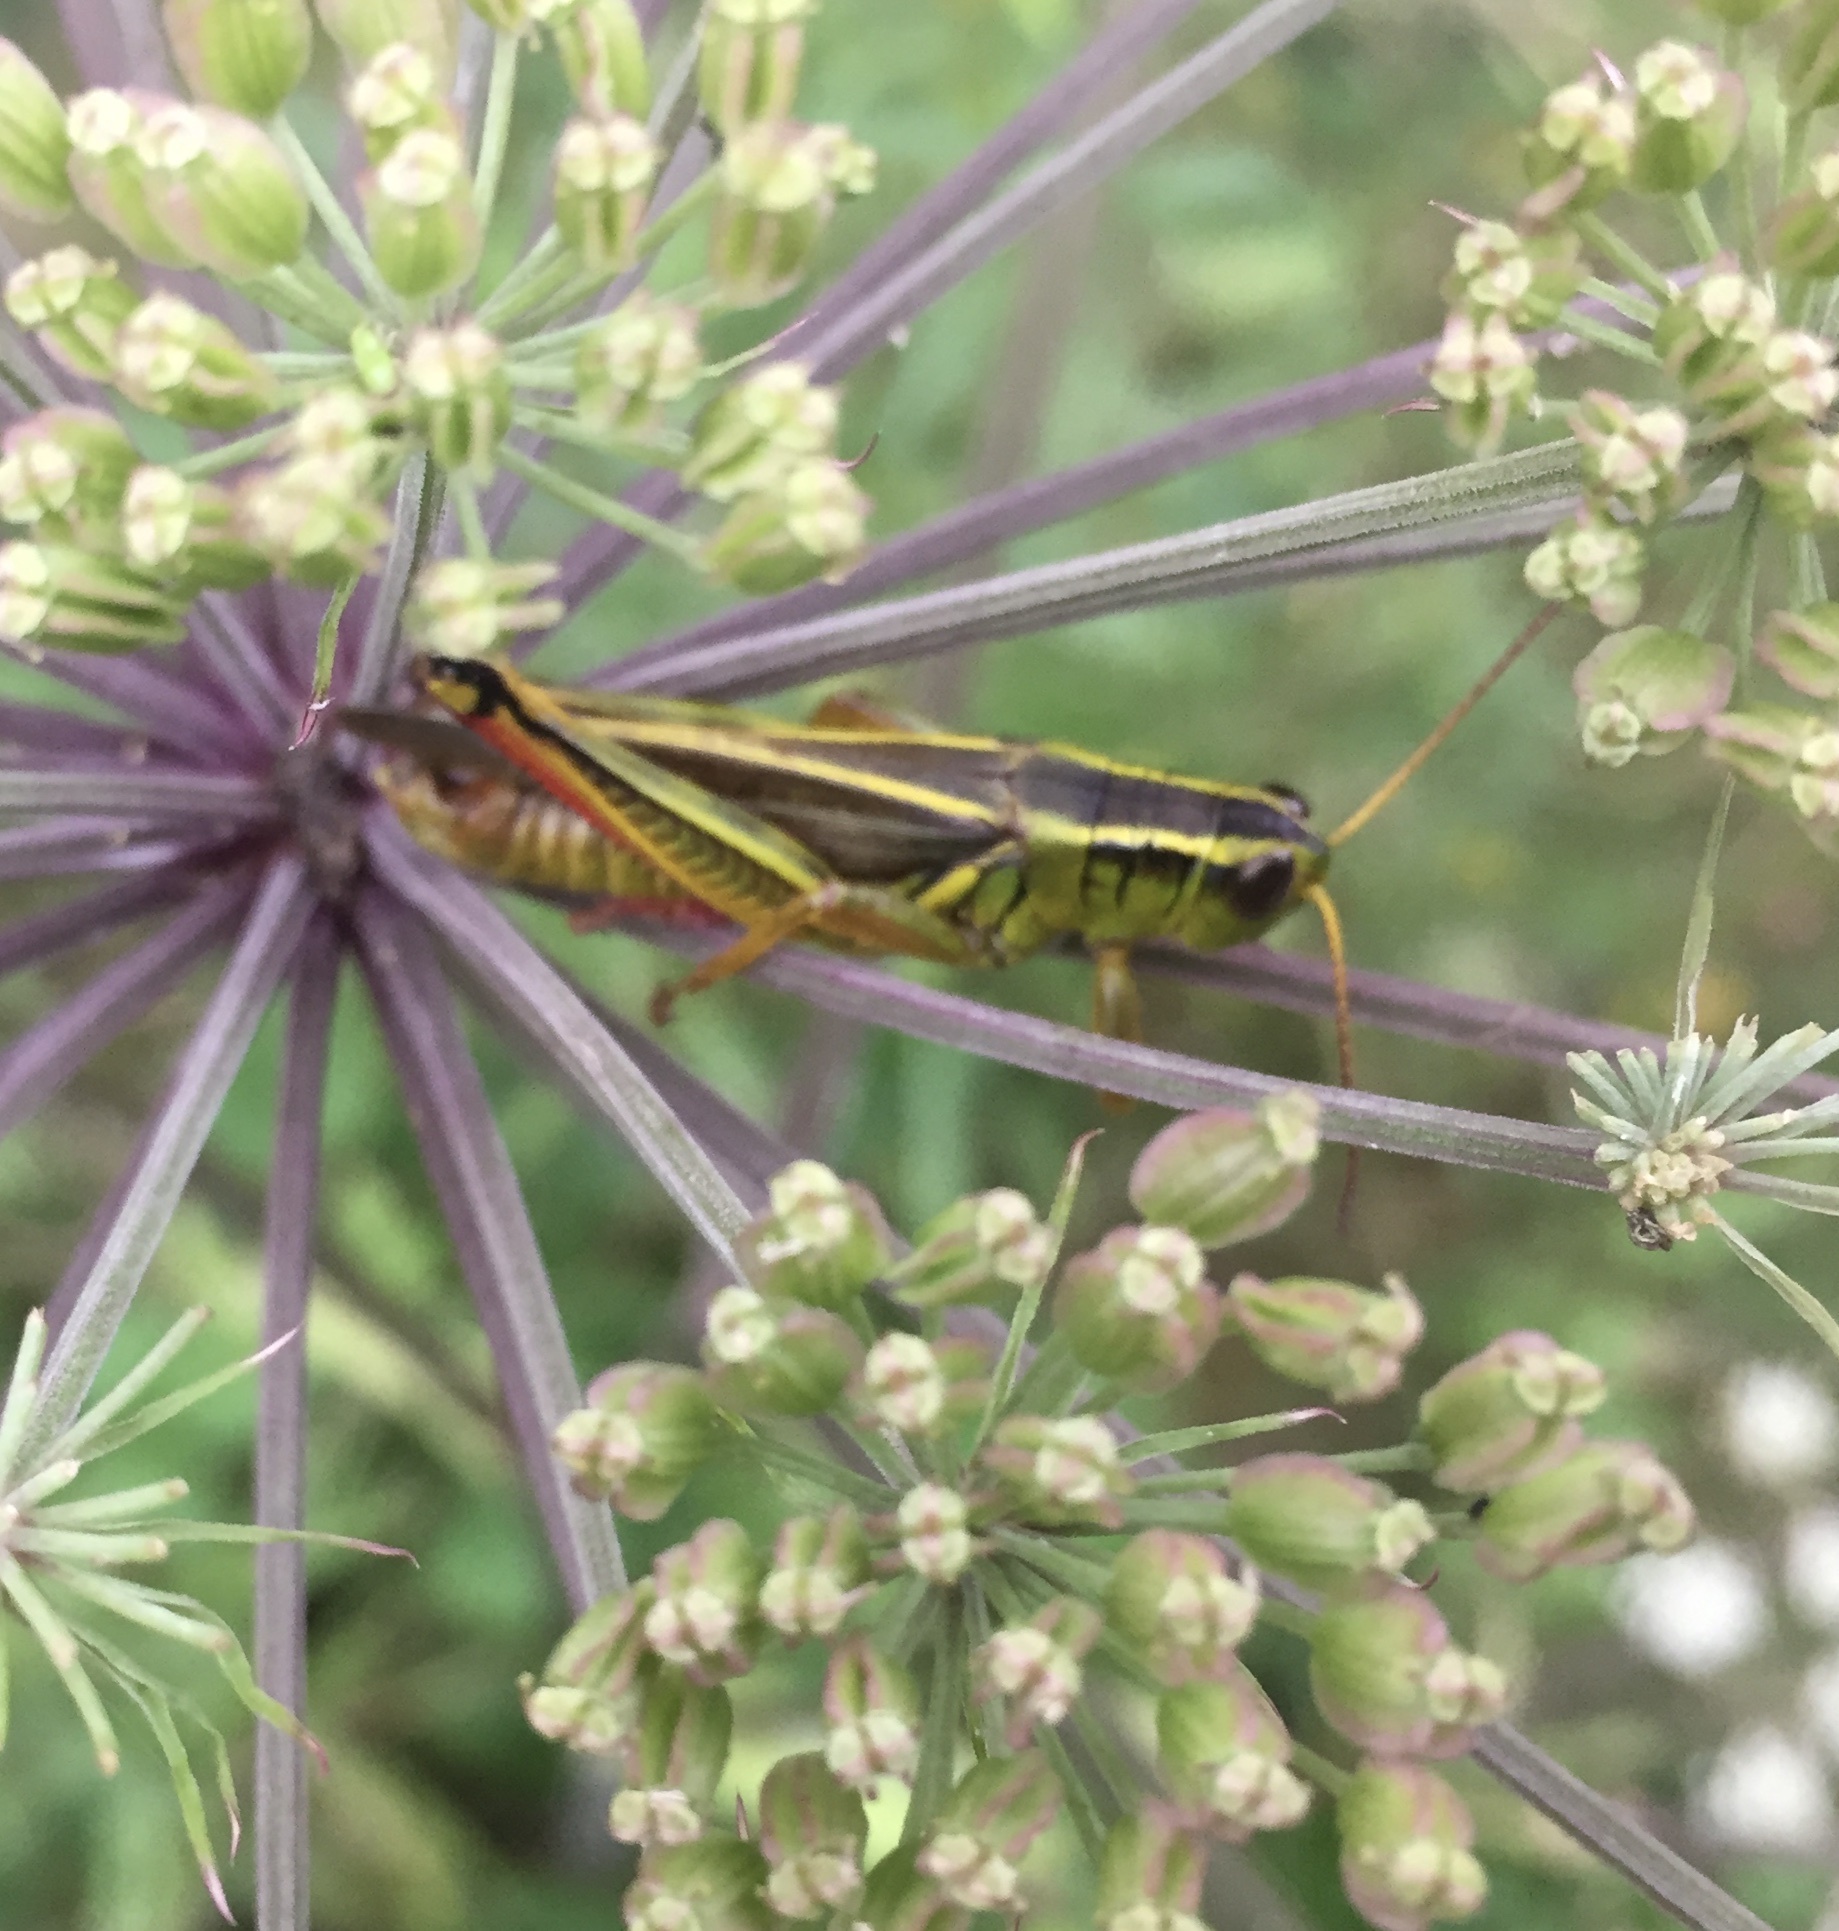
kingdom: Animalia
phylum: Arthropoda
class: Insecta
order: Orthoptera
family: Acrididae
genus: Melanoplus
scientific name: Melanoplus bivittatus
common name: Two-striped grasshopper
